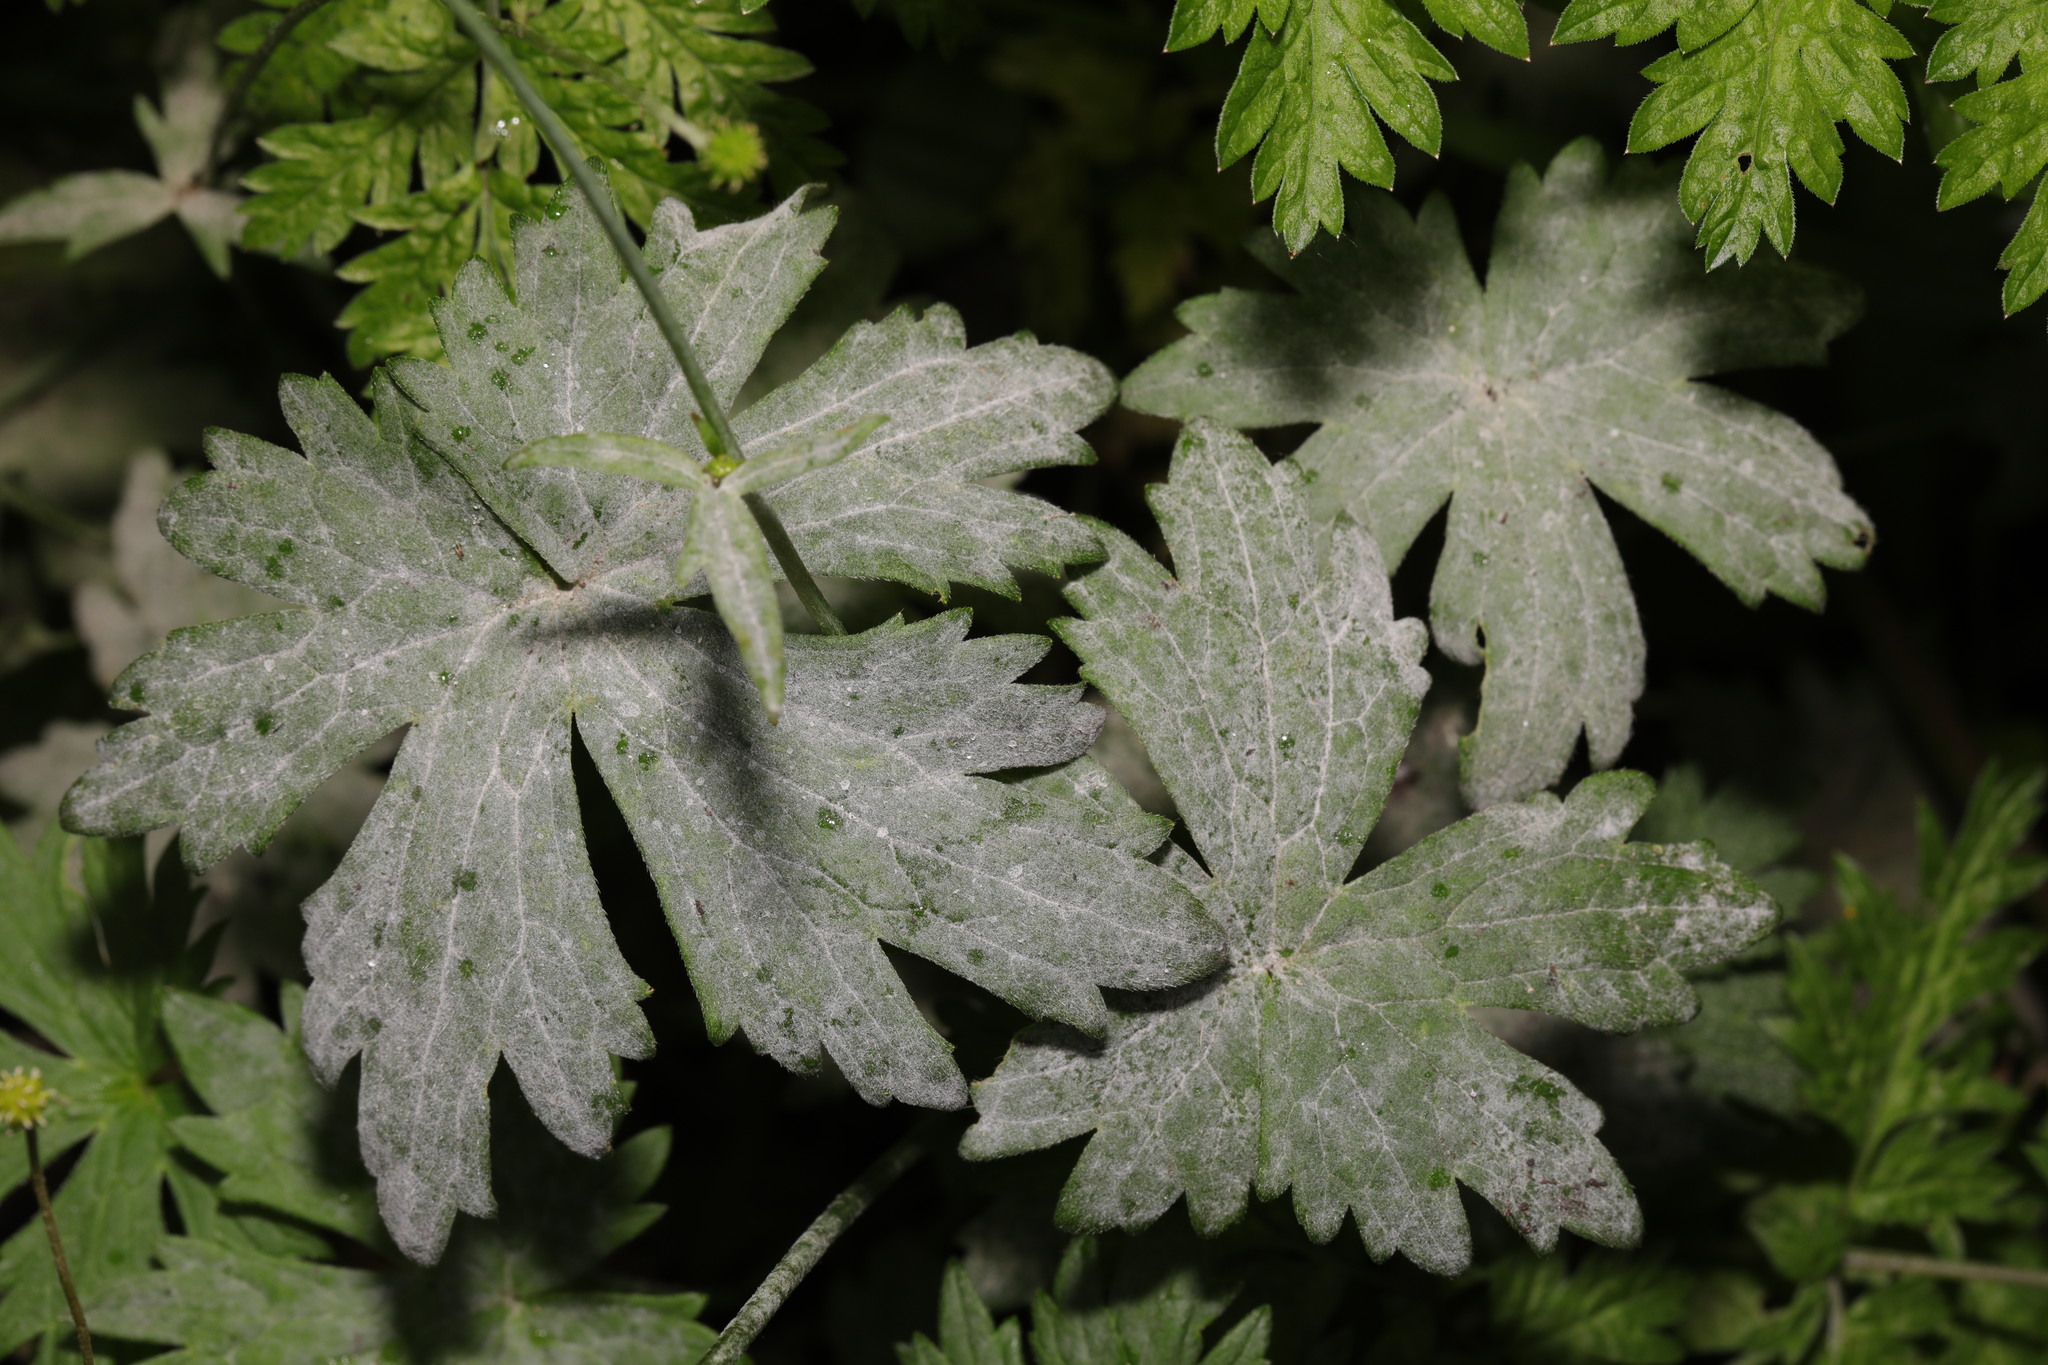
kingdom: Fungi
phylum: Ascomycota
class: Leotiomycetes
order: Helotiales
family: Erysiphaceae
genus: Neoerysiphe
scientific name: Neoerysiphe geranii
